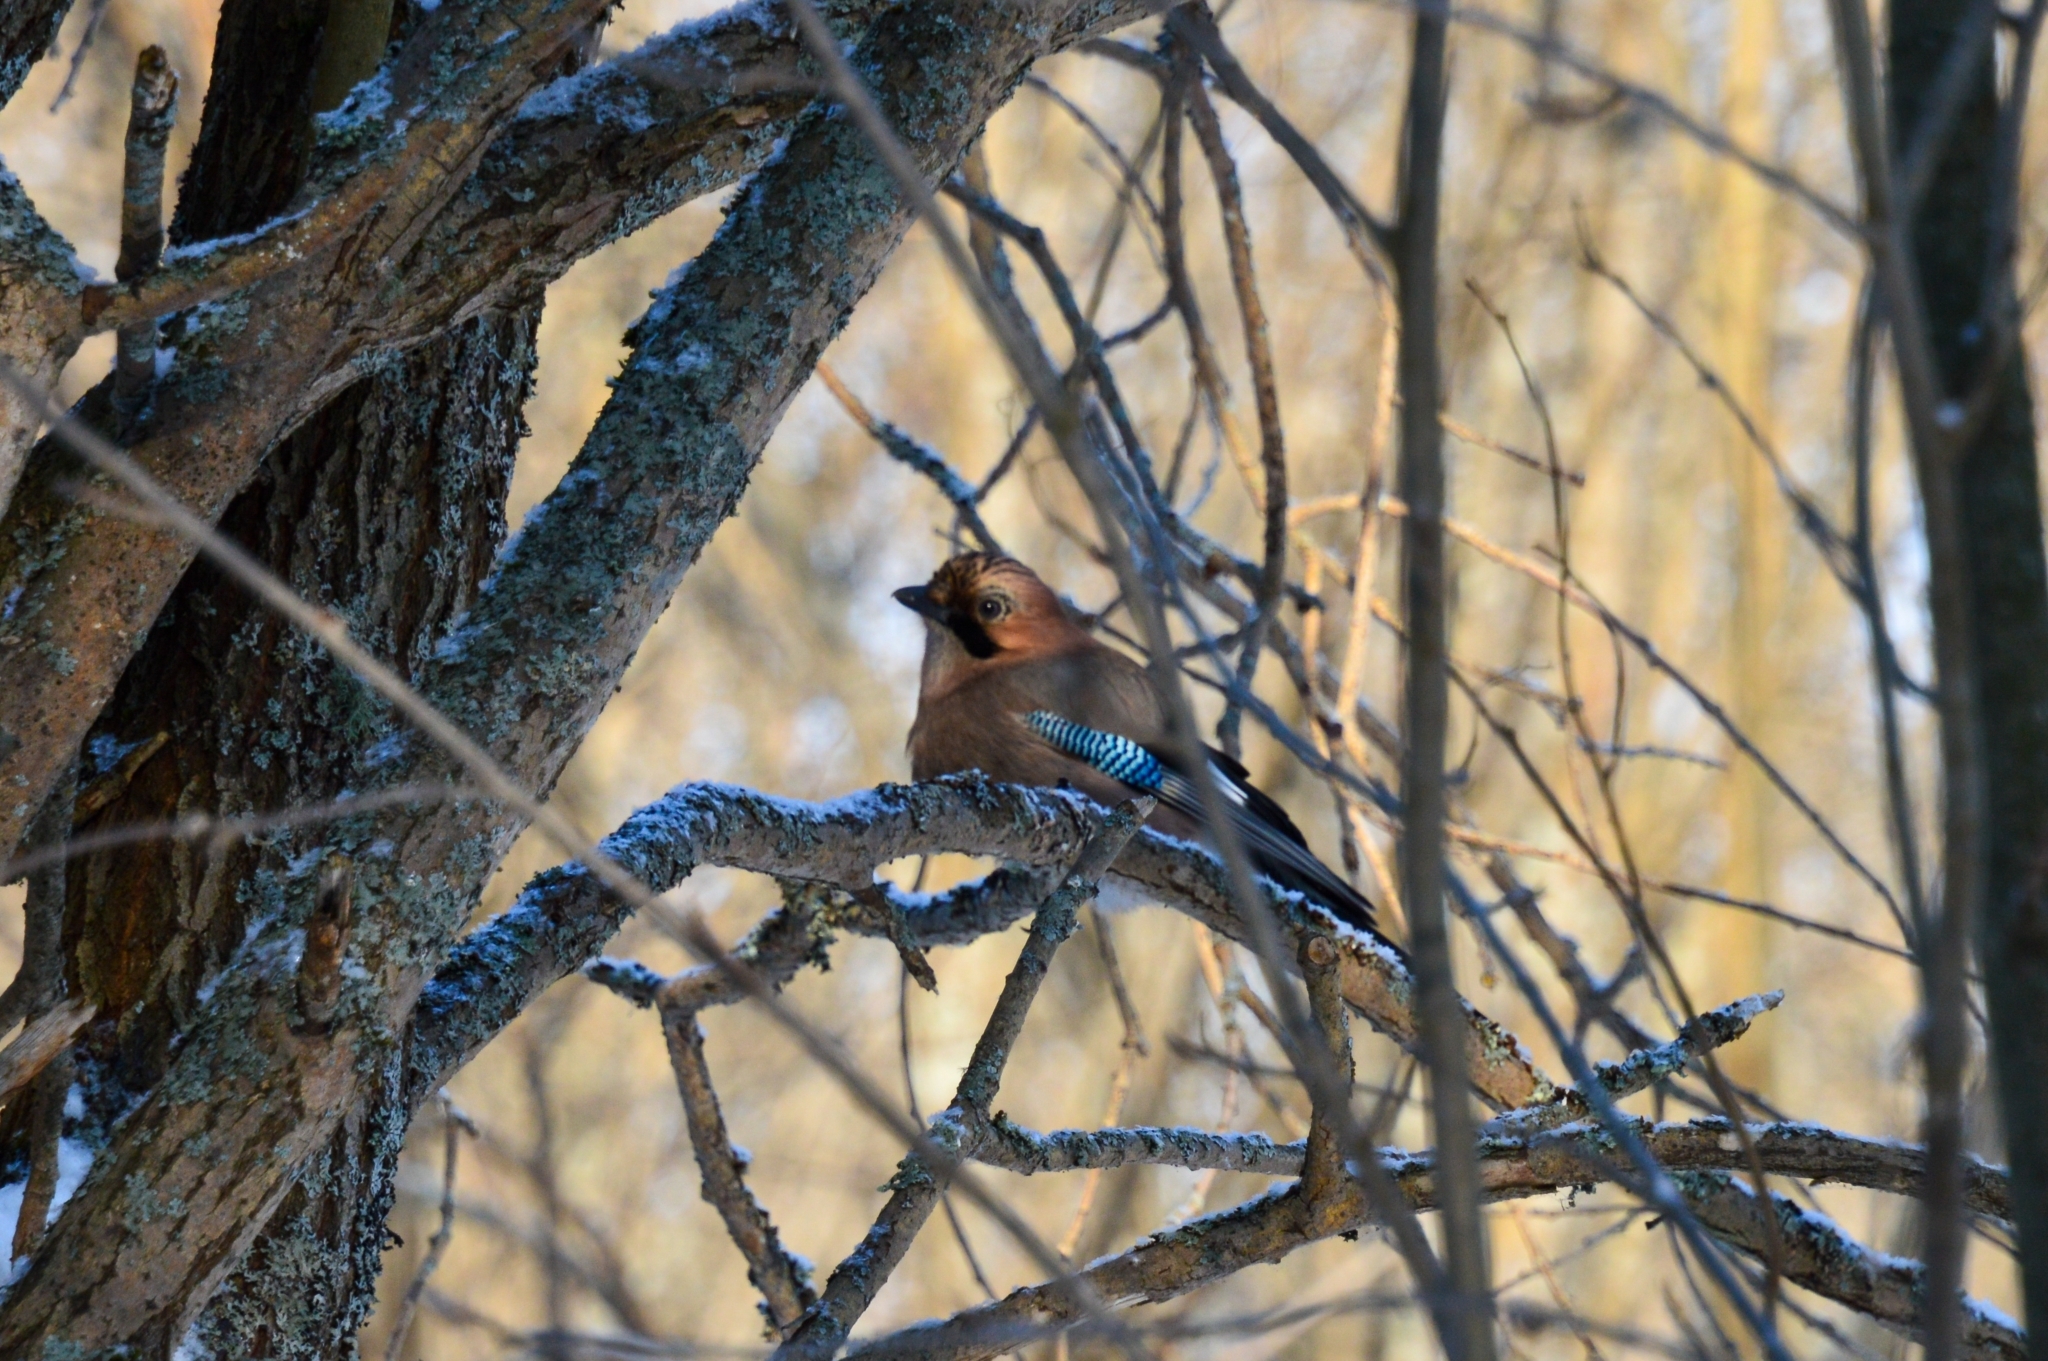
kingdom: Animalia
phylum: Chordata
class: Aves
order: Passeriformes
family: Corvidae
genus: Garrulus
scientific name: Garrulus glandarius
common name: Eurasian jay
